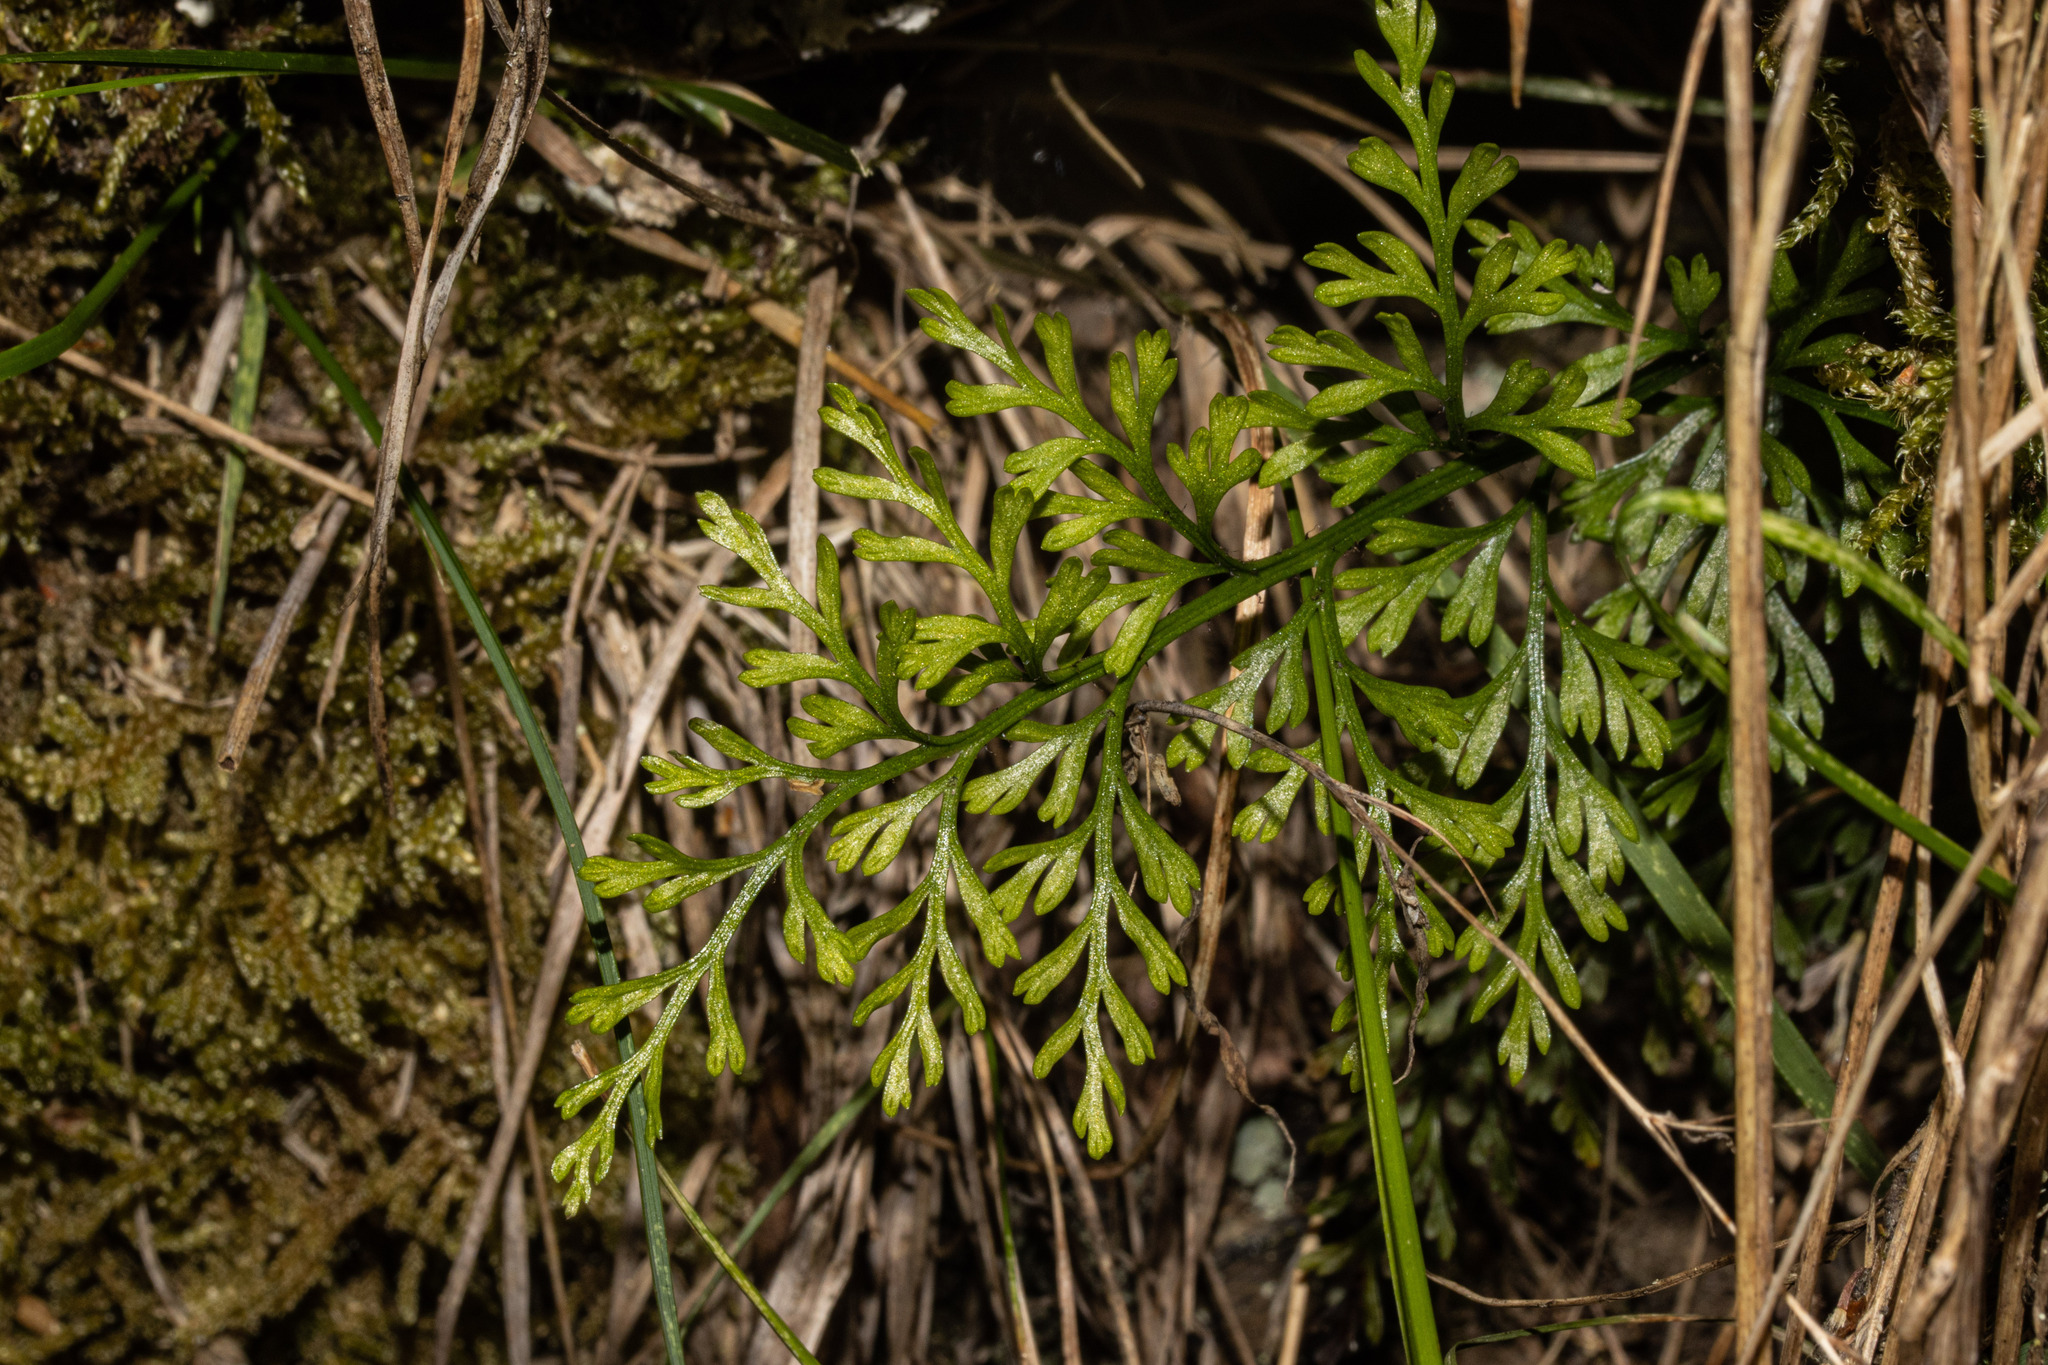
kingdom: Plantae
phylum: Tracheophyta
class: Polypodiopsida
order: Polypodiales
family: Aspleniaceae
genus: Asplenium
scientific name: Asplenium richardii
